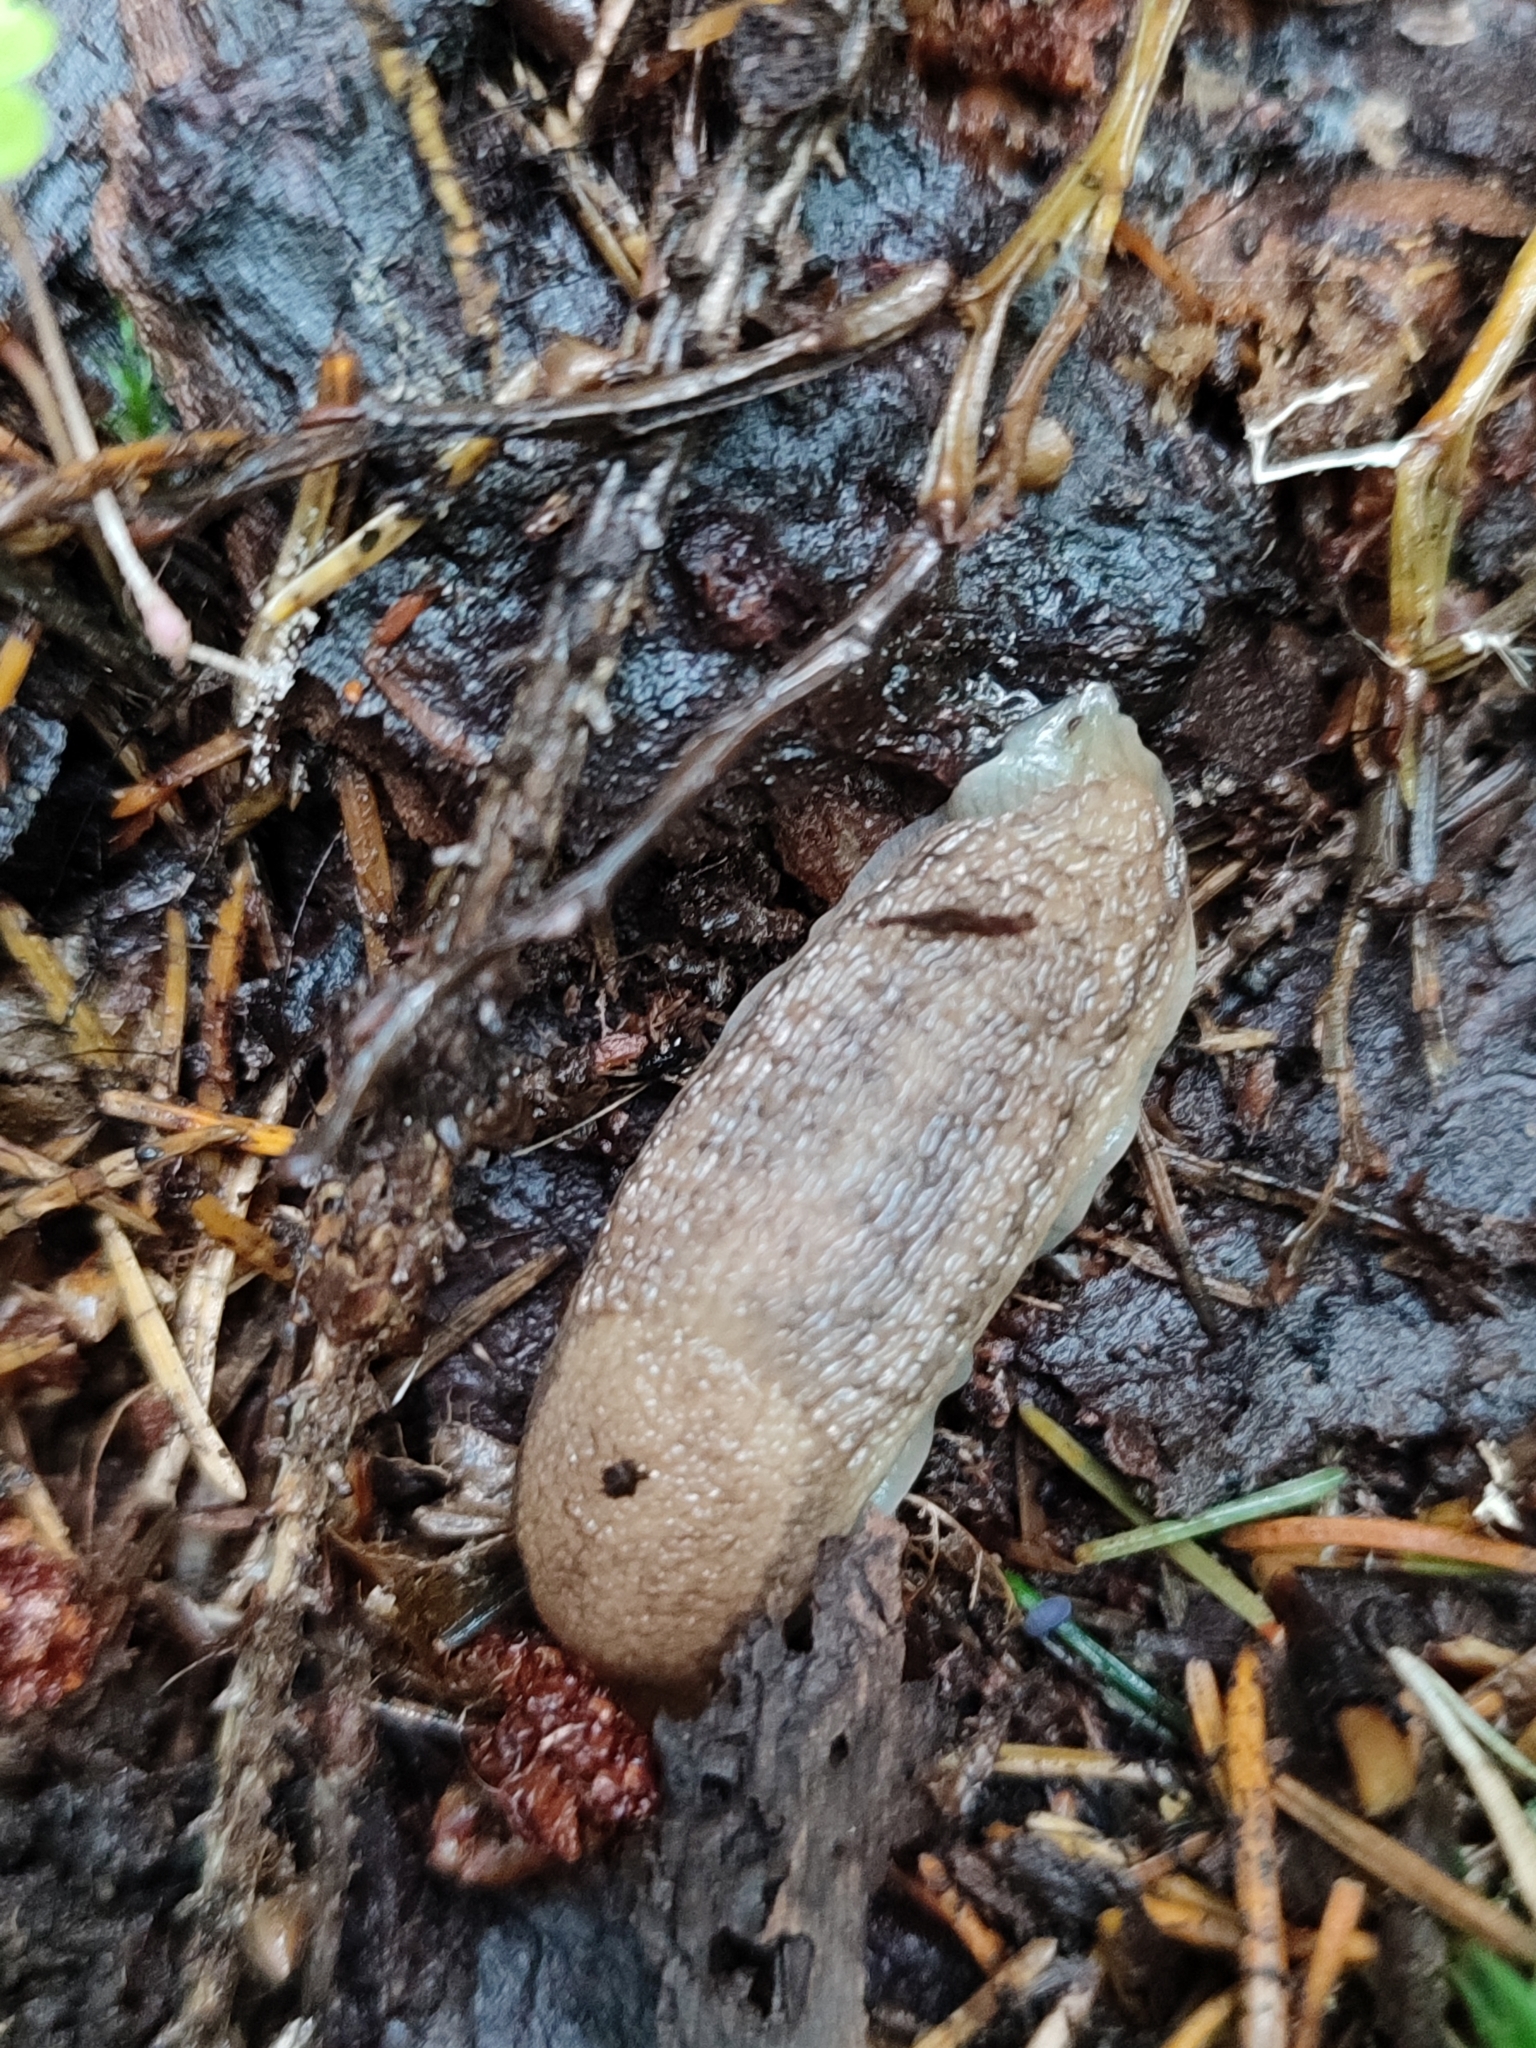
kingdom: Animalia
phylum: Mollusca
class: Gastropoda
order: Stylommatophora
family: Arionidae
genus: Arion
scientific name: Arion fuscus
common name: Northern dusky slug
